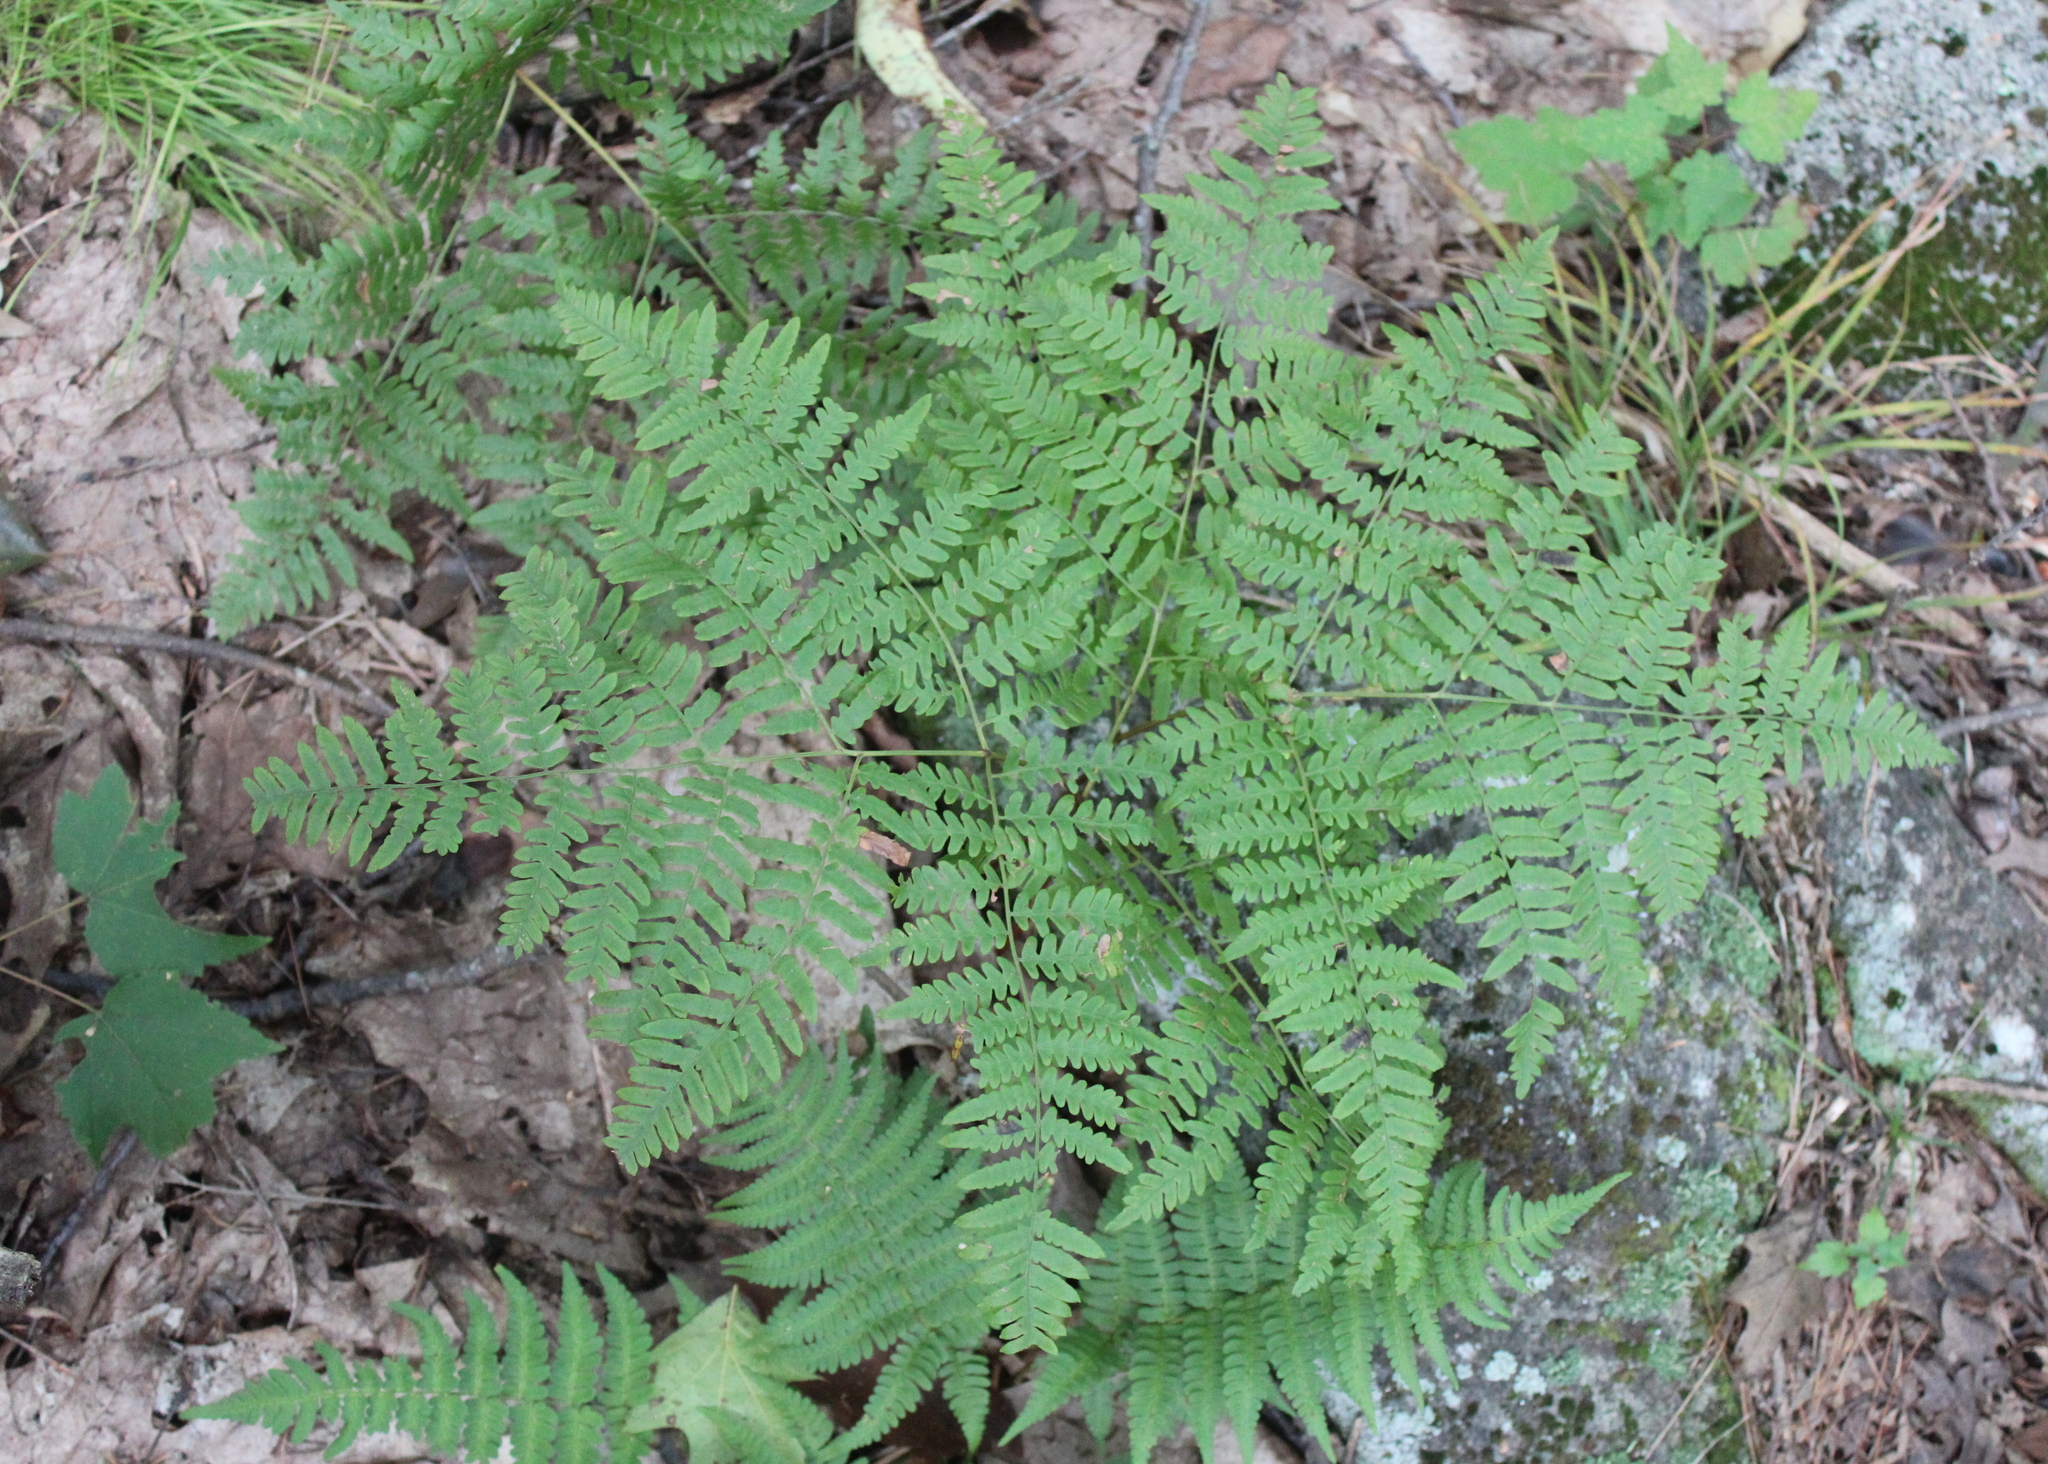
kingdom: Plantae
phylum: Tracheophyta
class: Polypodiopsida
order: Polypodiales
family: Dennstaedtiaceae
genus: Pteridium
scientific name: Pteridium aquilinum
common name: Bracken
